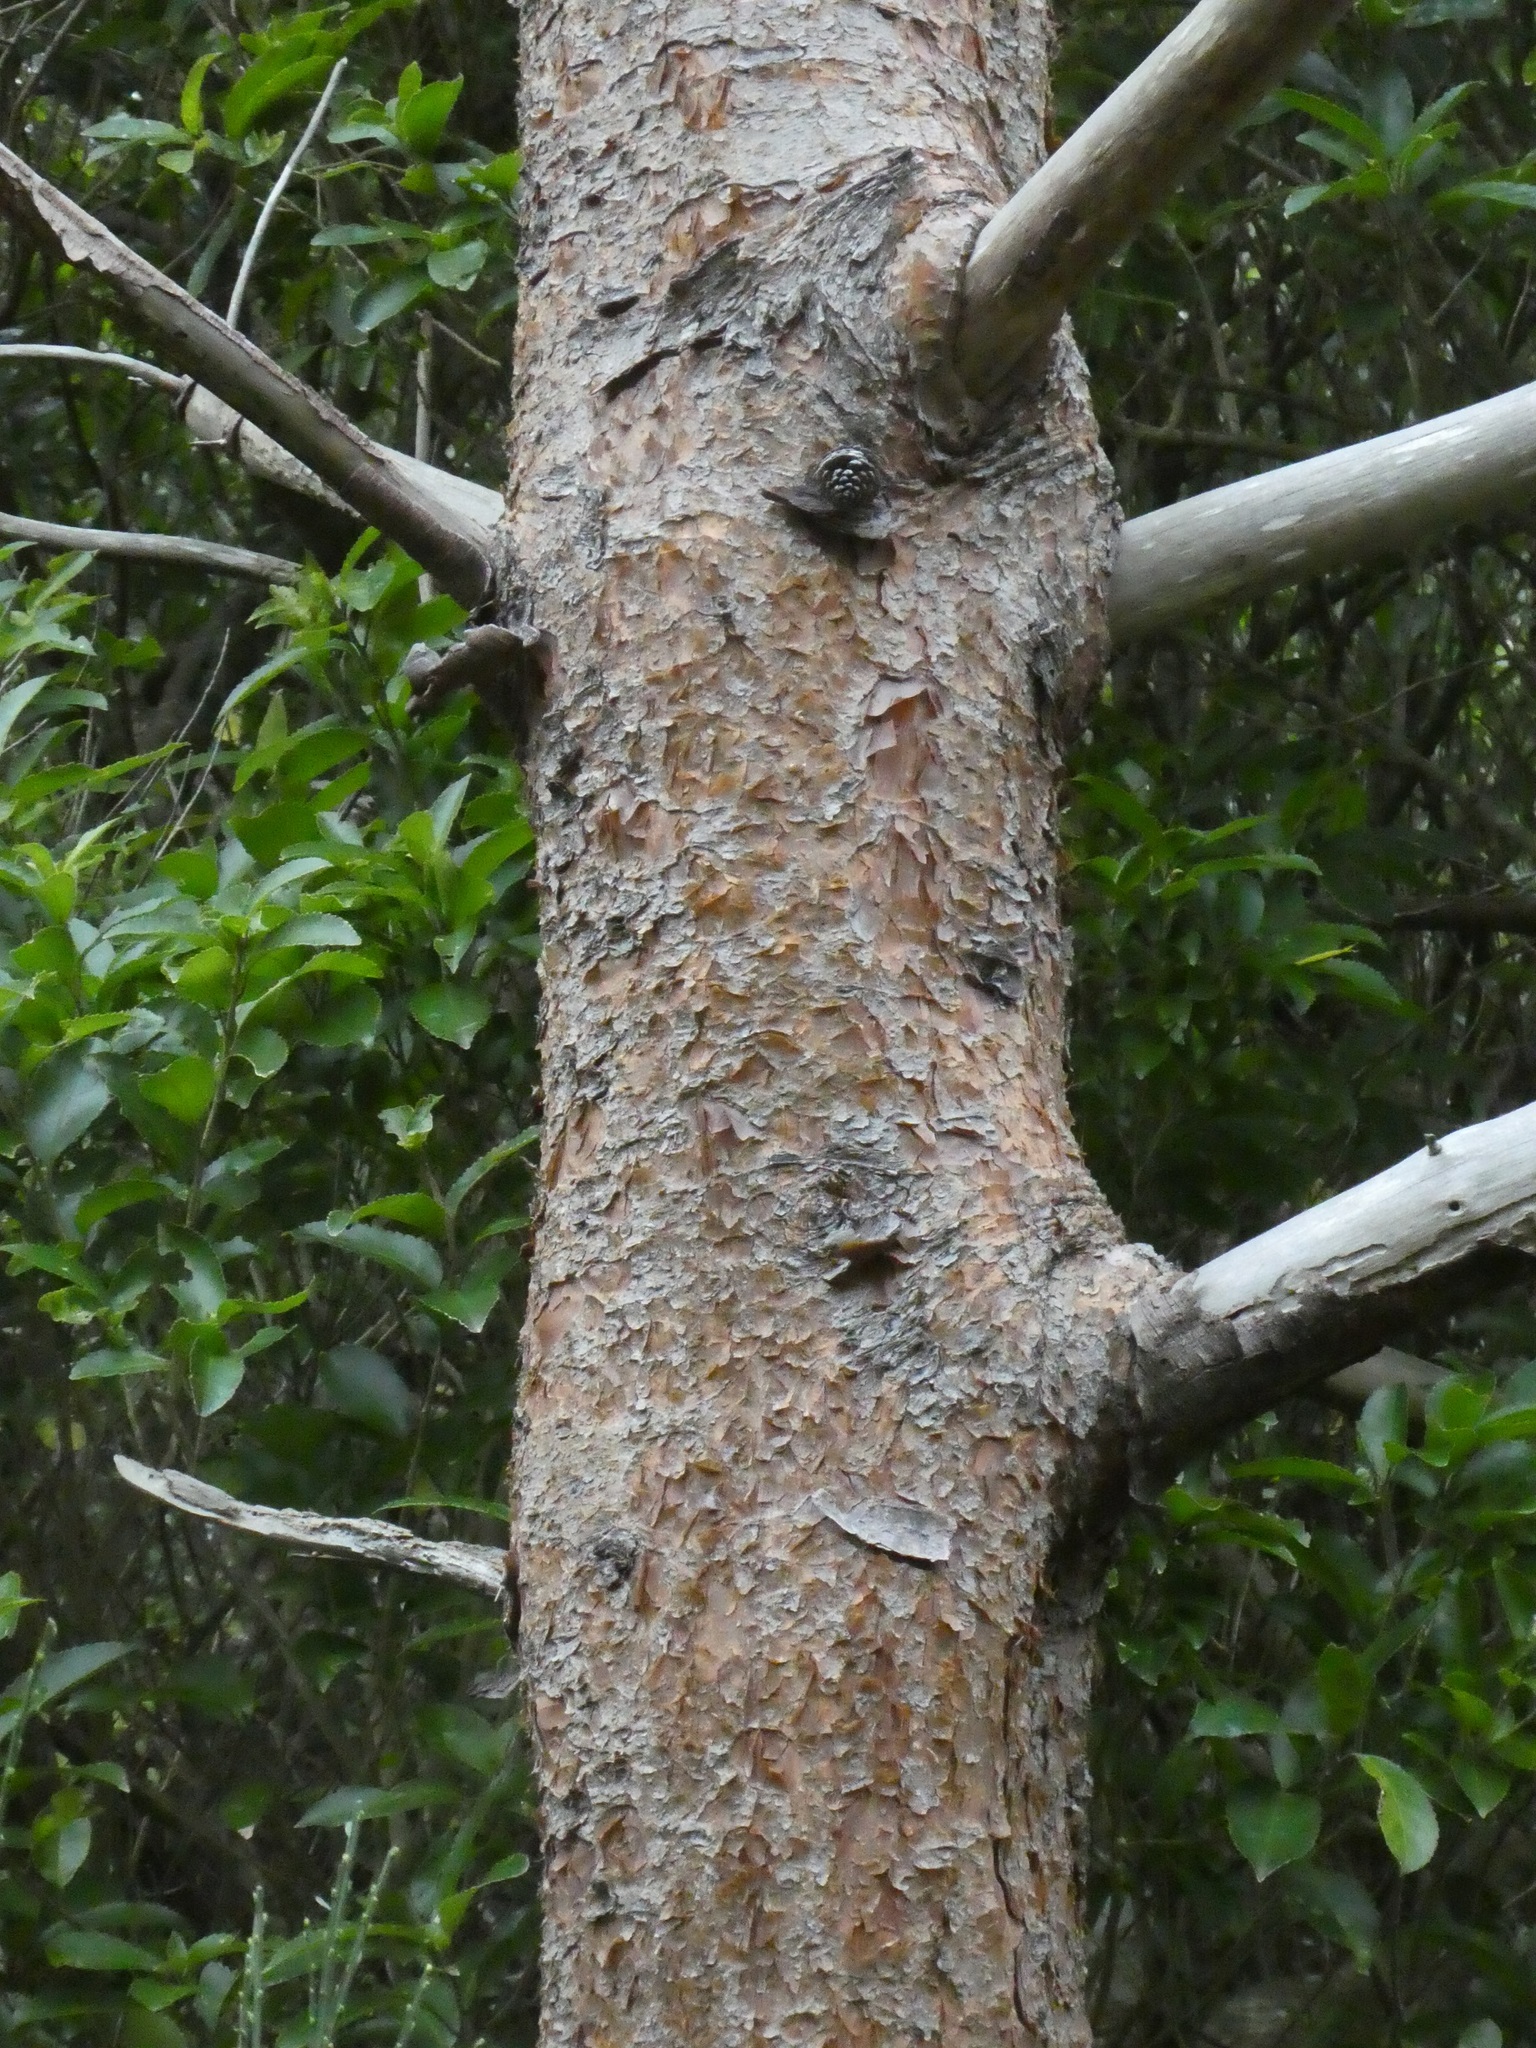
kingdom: Plantae
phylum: Tracheophyta
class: Pinopsida
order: Pinales
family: Pinaceae
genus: Pinus
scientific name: Pinus patula
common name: Mexican weeping pine
